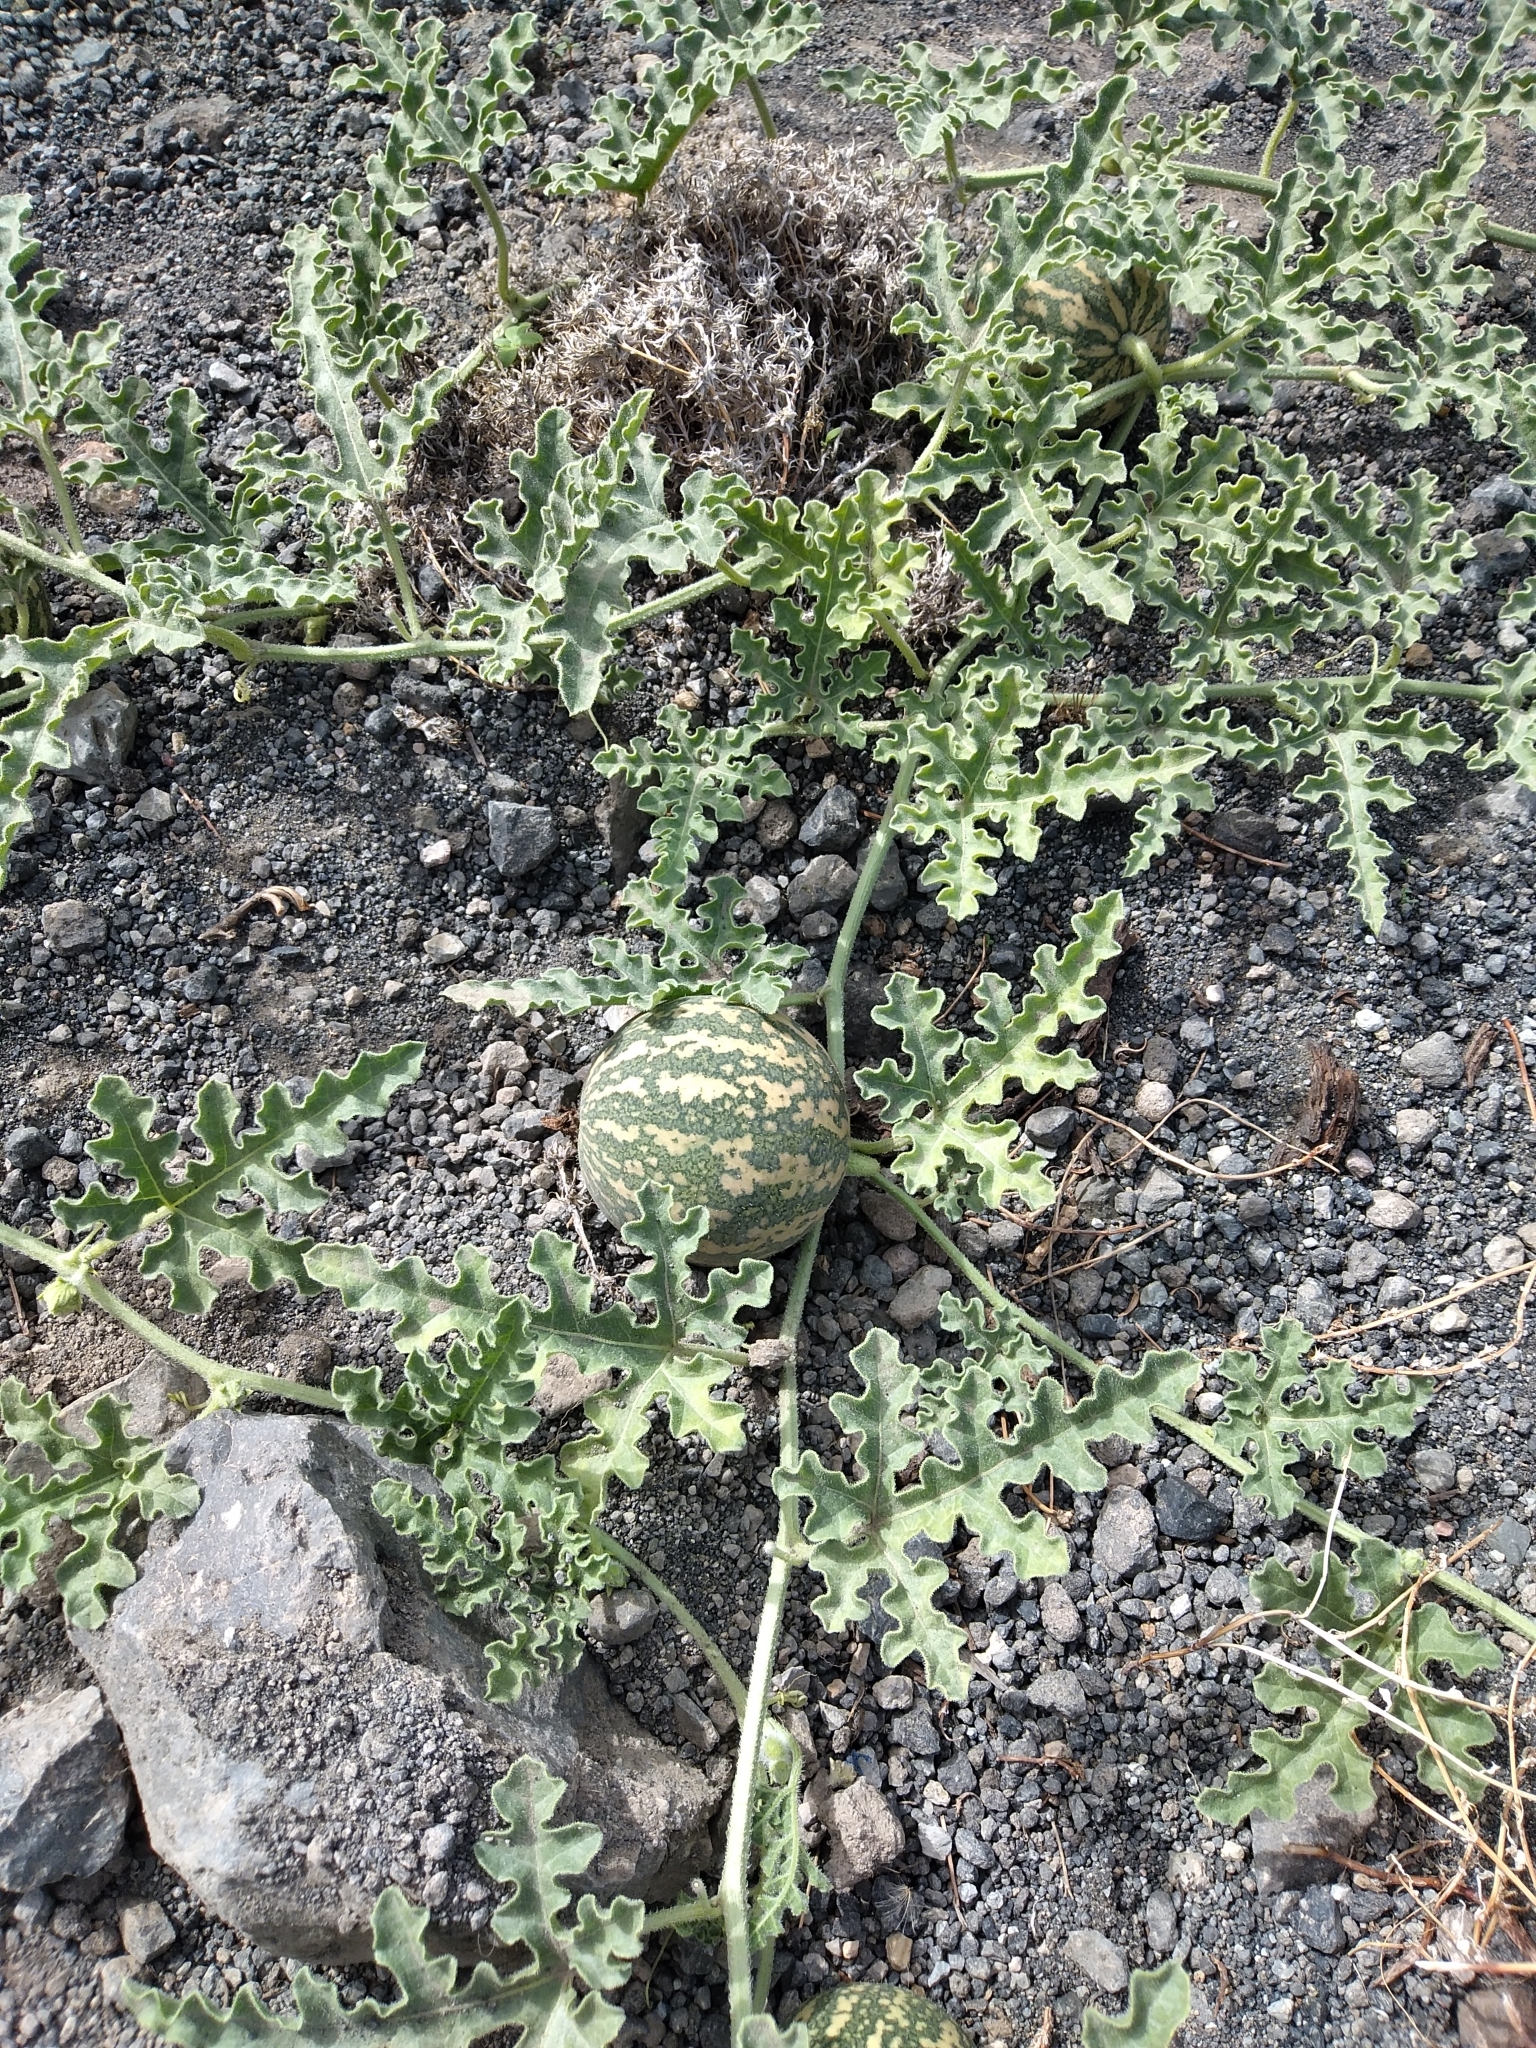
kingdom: Plantae
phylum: Tracheophyta
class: Magnoliopsida
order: Cucurbitales
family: Cucurbitaceae
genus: Citrullus
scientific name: Citrullus colocynthis
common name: Colocynth
